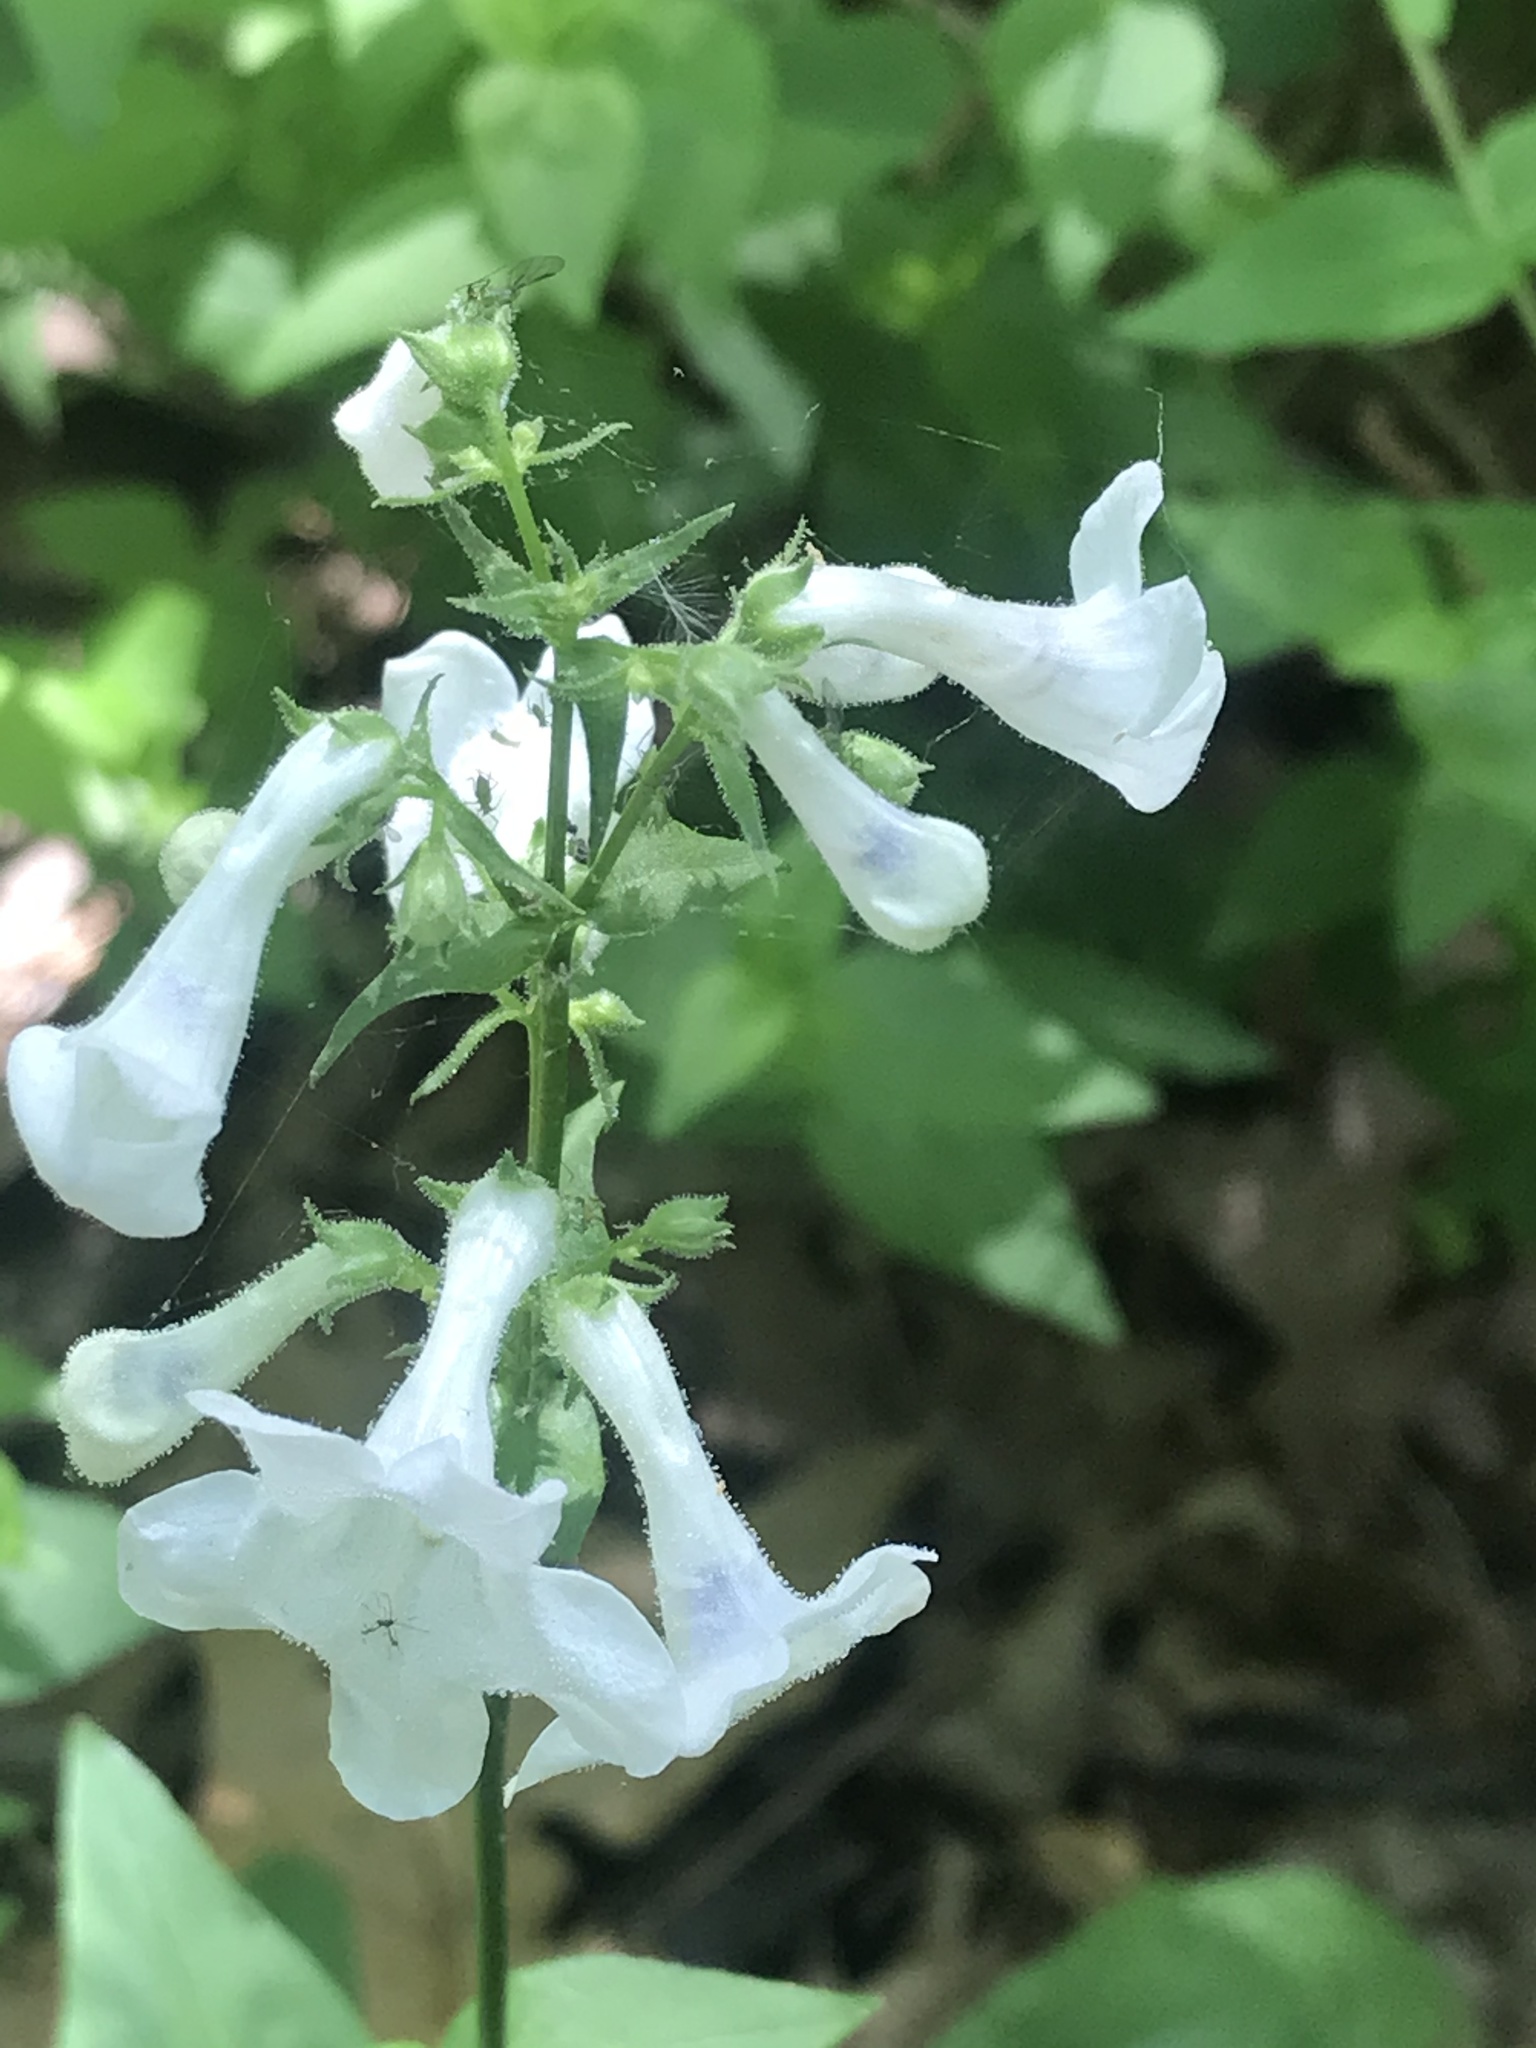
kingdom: Plantae
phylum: Tracheophyta
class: Magnoliopsida
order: Lamiales
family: Plantaginaceae
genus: Penstemon
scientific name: Penstemon tubaeflorus
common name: White wand beardtongue
